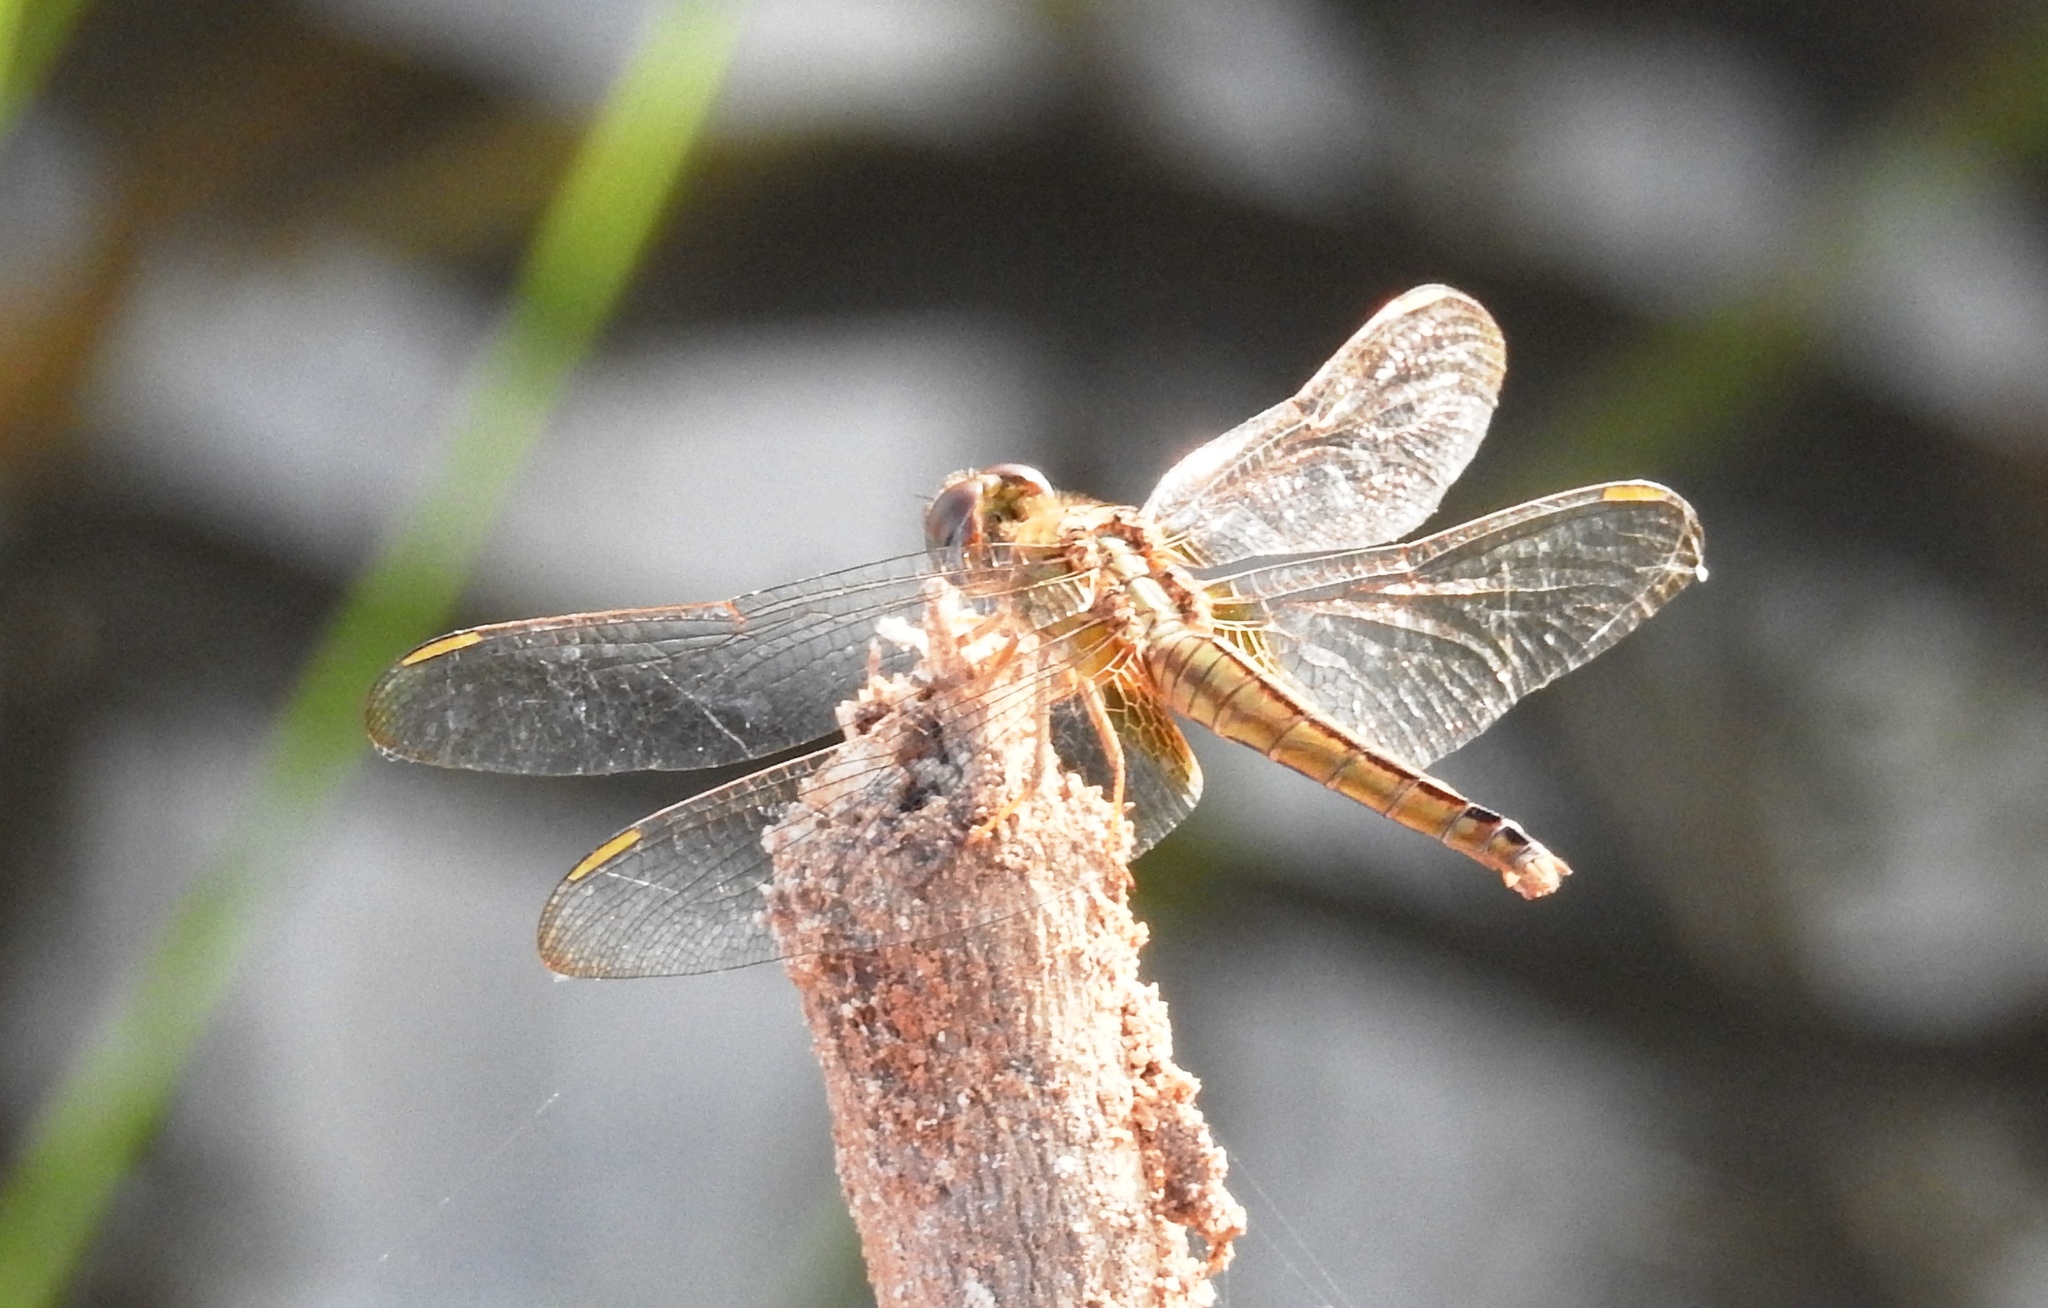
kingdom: Animalia
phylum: Arthropoda
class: Insecta
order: Odonata
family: Libellulidae
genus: Crocothemis
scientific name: Crocothemis servilia
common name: Scarlet skimmer
